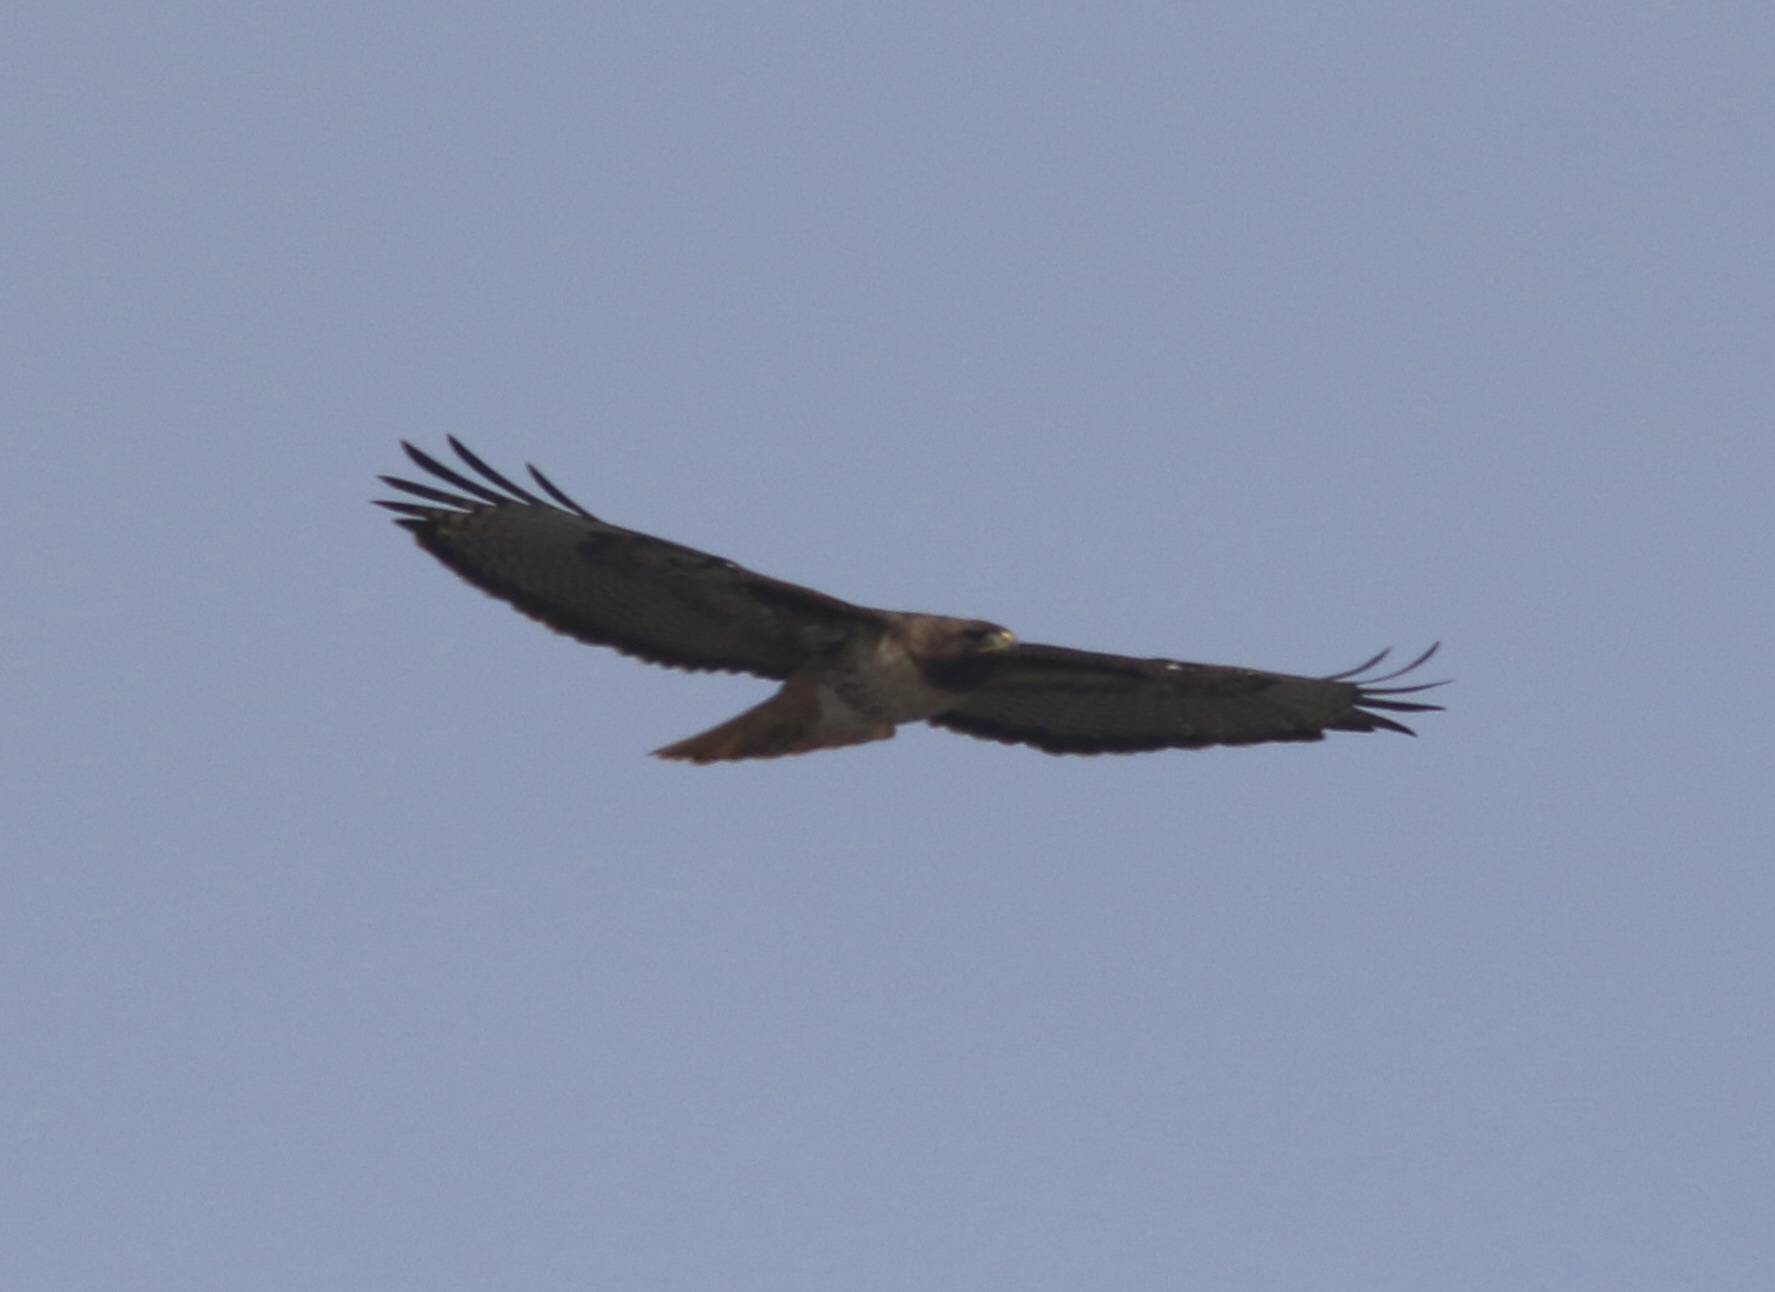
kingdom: Animalia
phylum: Chordata
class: Aves
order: Accipitriformes
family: Accipitridae
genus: Buteo
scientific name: Buteo jamaicensis
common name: Red-tailed hawk
